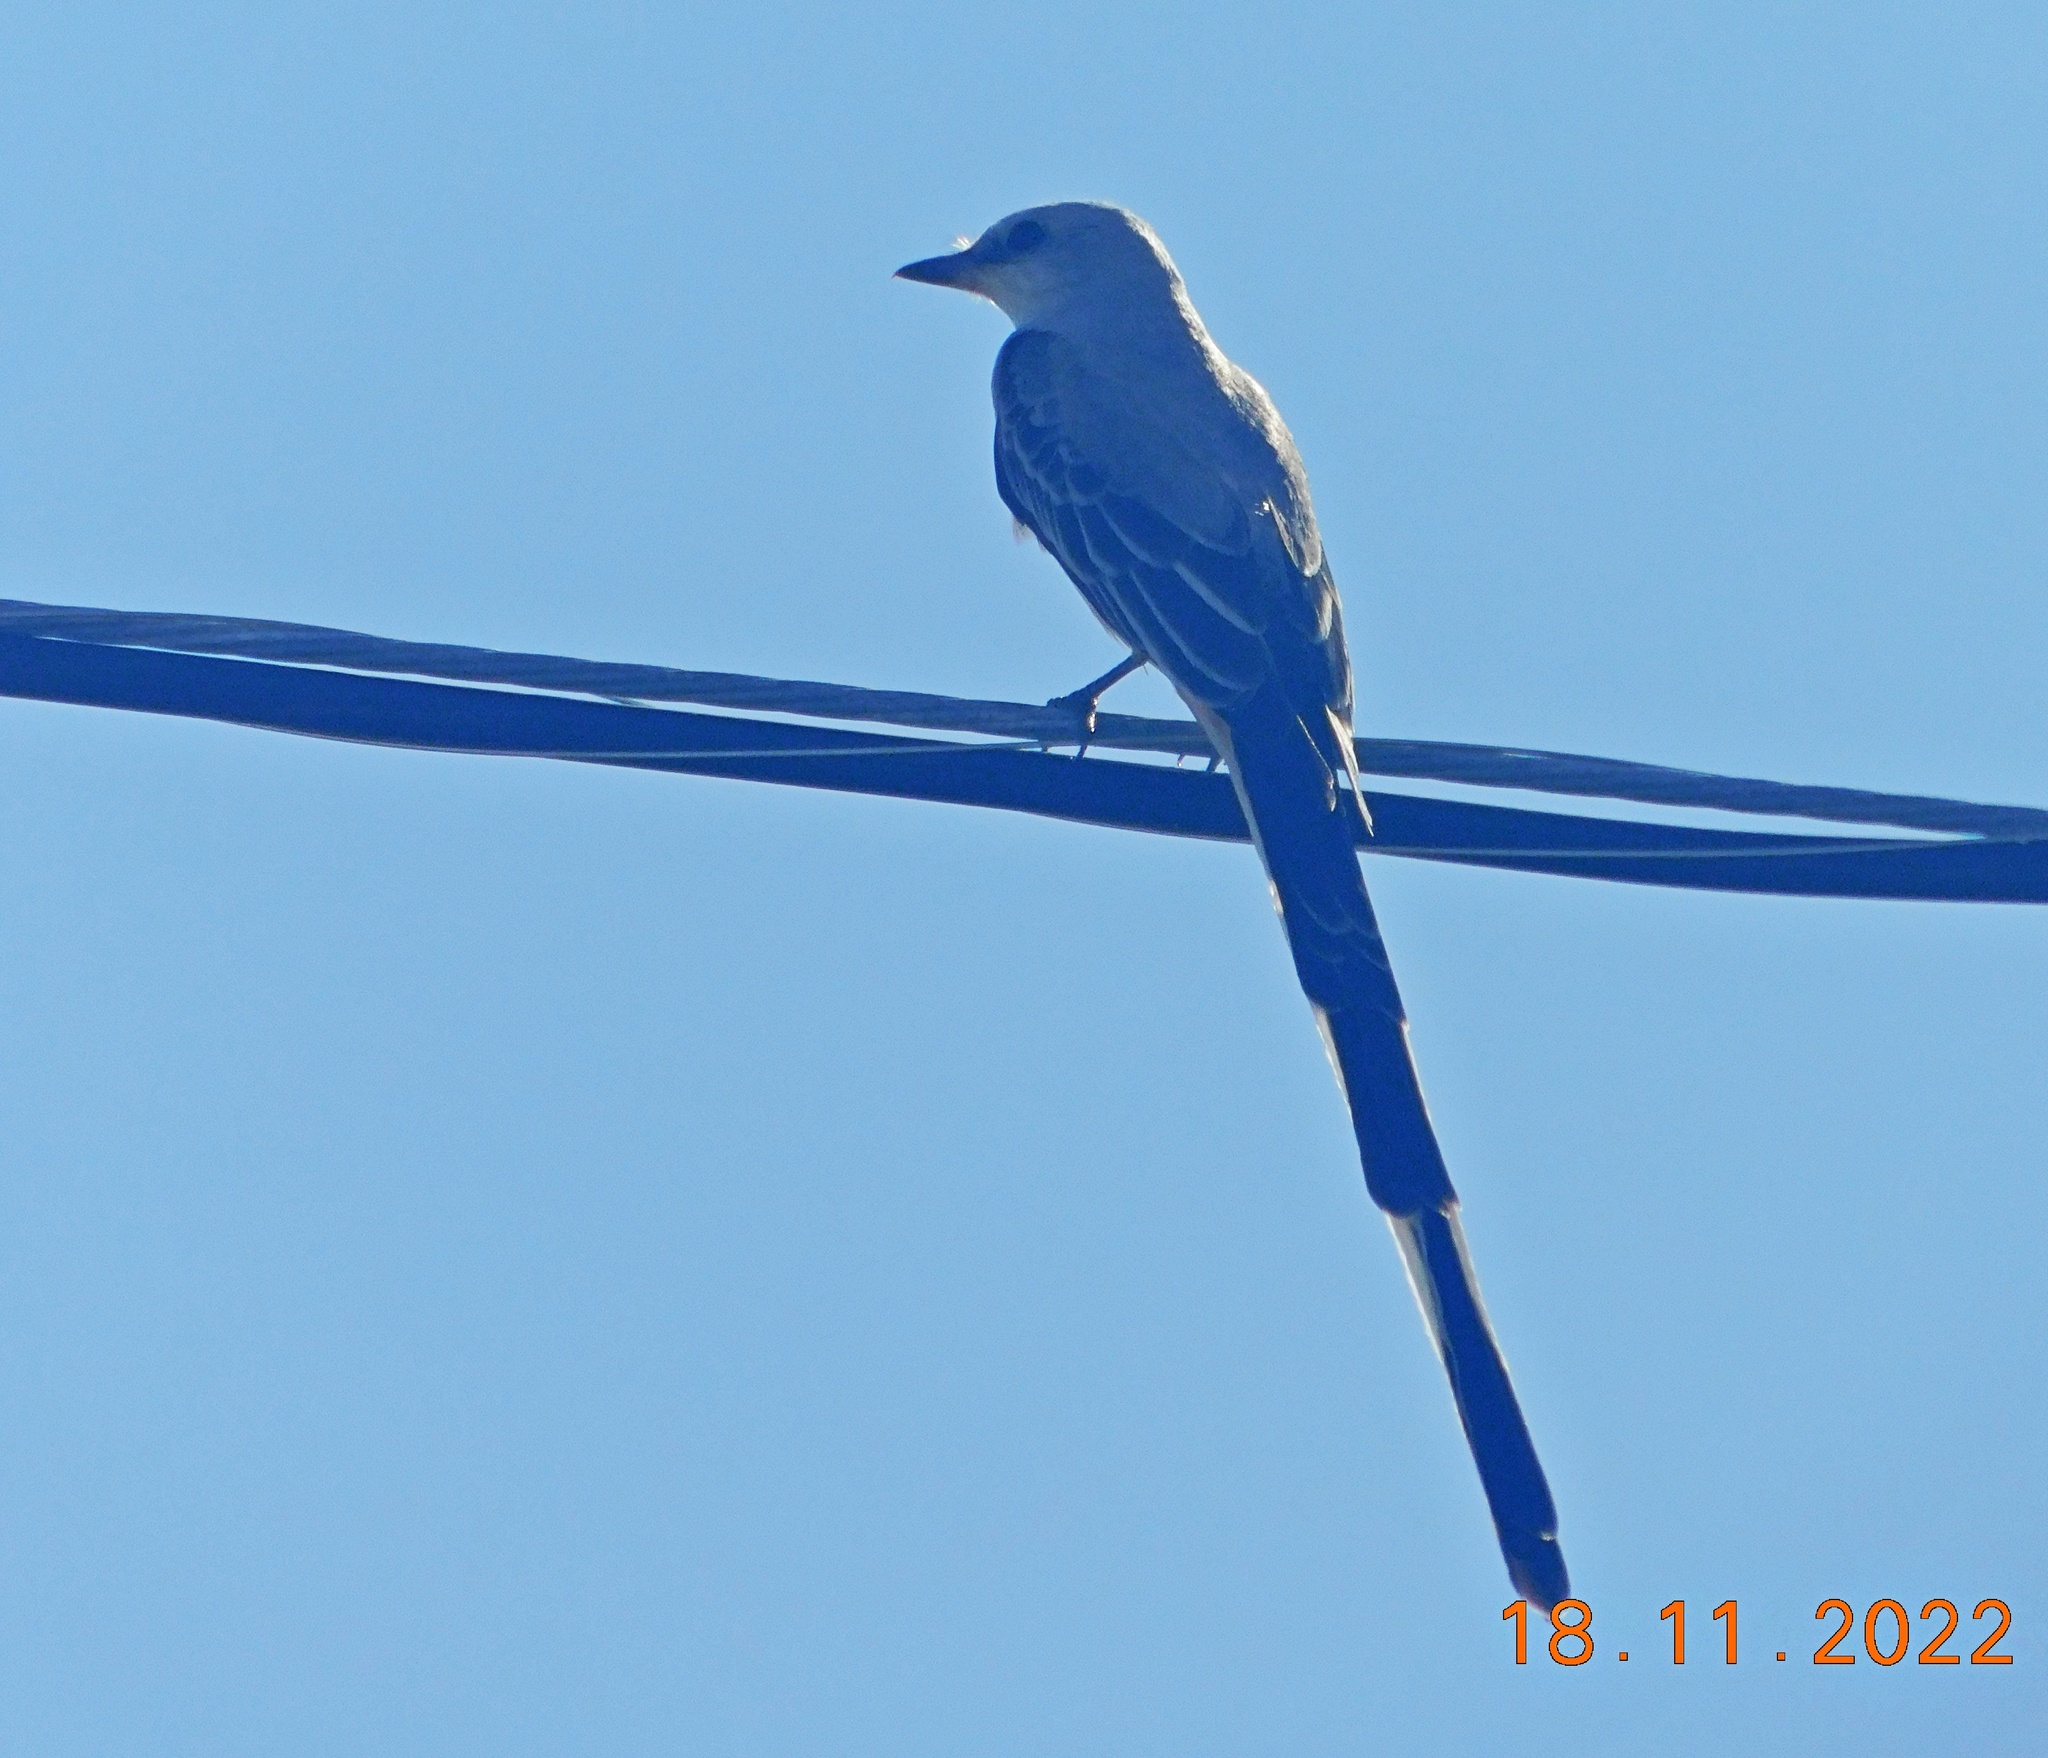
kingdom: Animalia
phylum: Chordata
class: Aves
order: Passeriformes
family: Tyrannidae
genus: Tyrannus
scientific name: Tyrannus forficatus
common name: Scissor-tailed flycatcher
